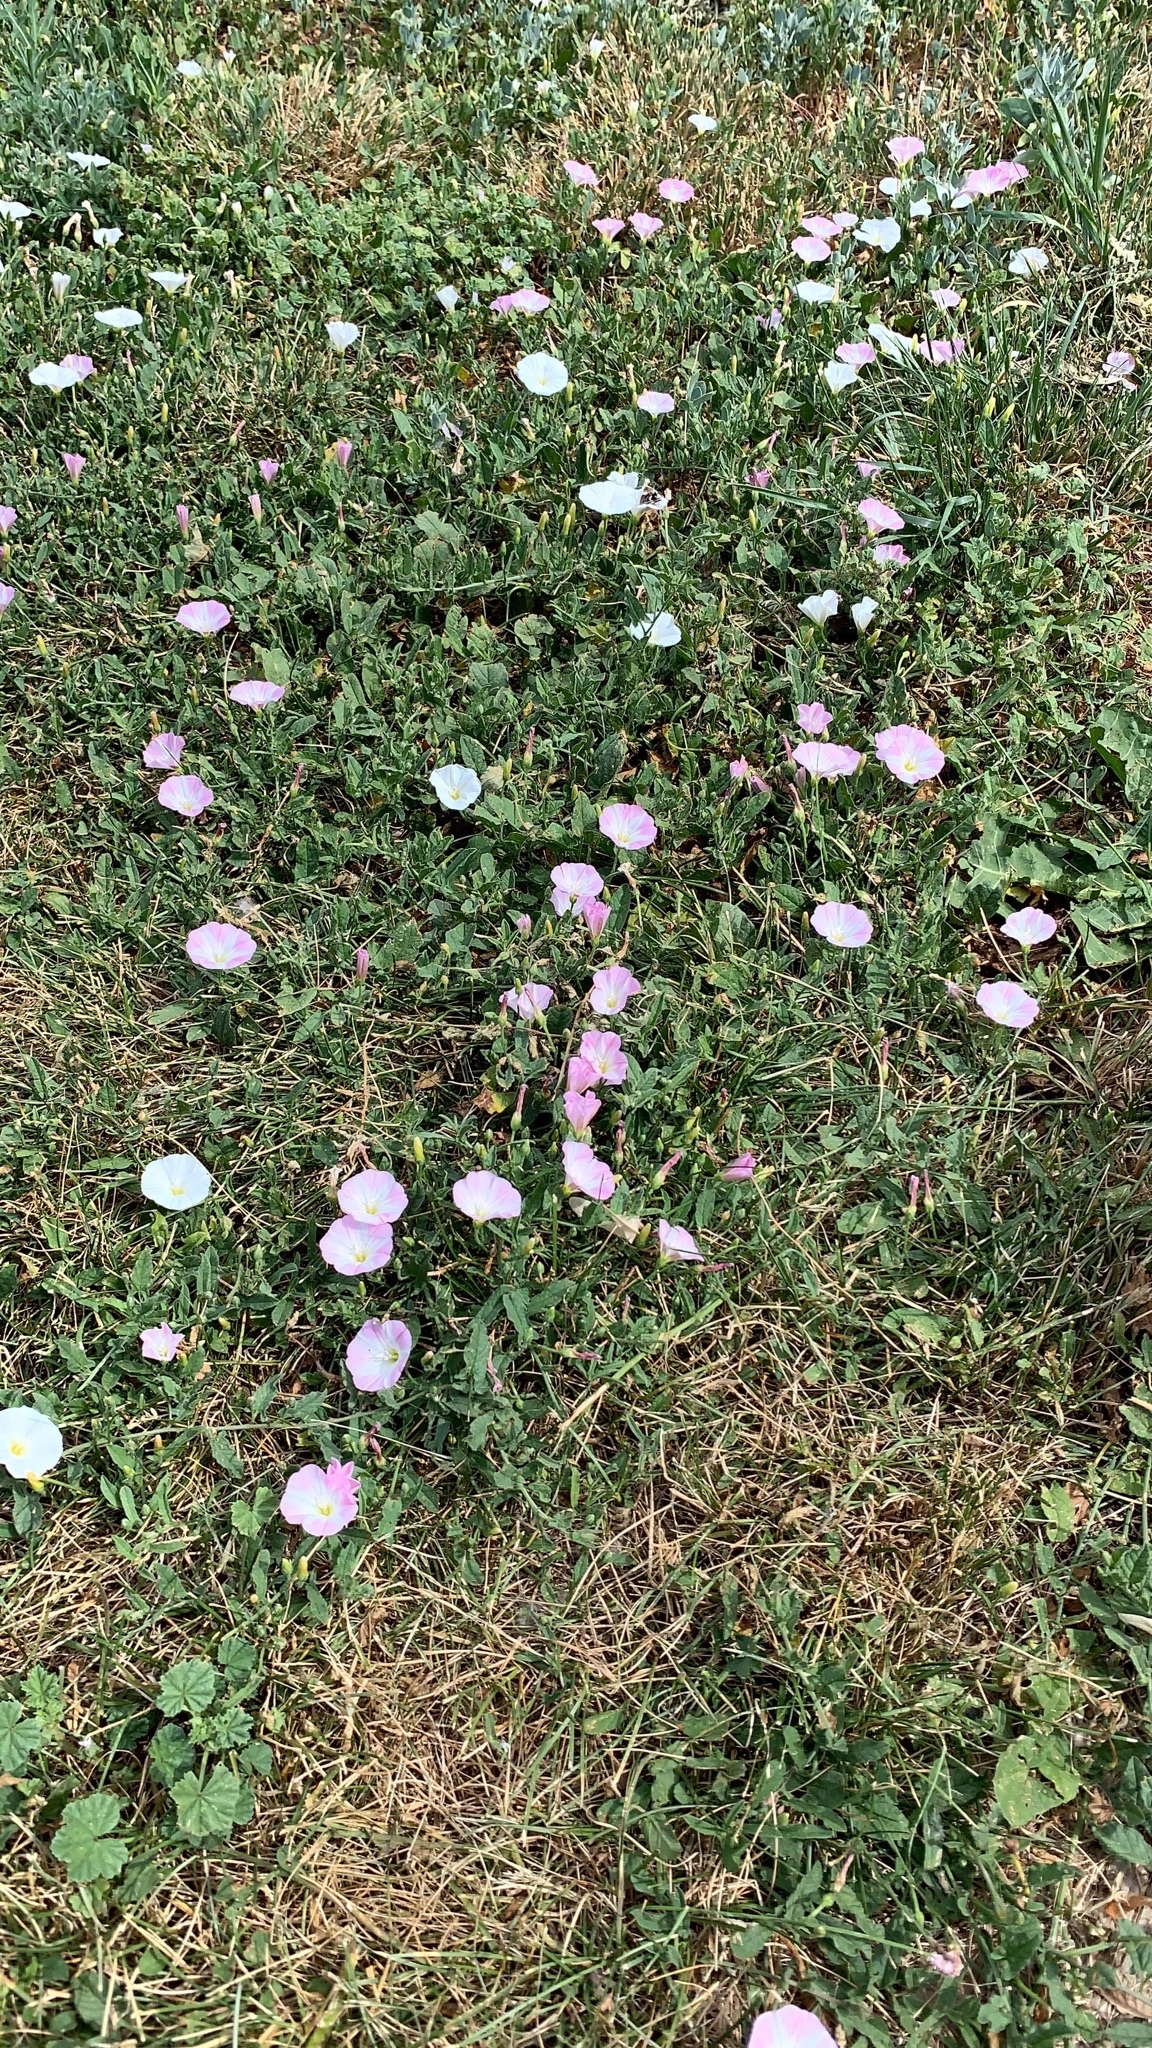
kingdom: Plantae
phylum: Tracheophyta
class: Magnoliopsida
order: Solanales
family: Convolvulaceae
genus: Convolvulus
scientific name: Convolvulus arvensis
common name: Field bindweed
